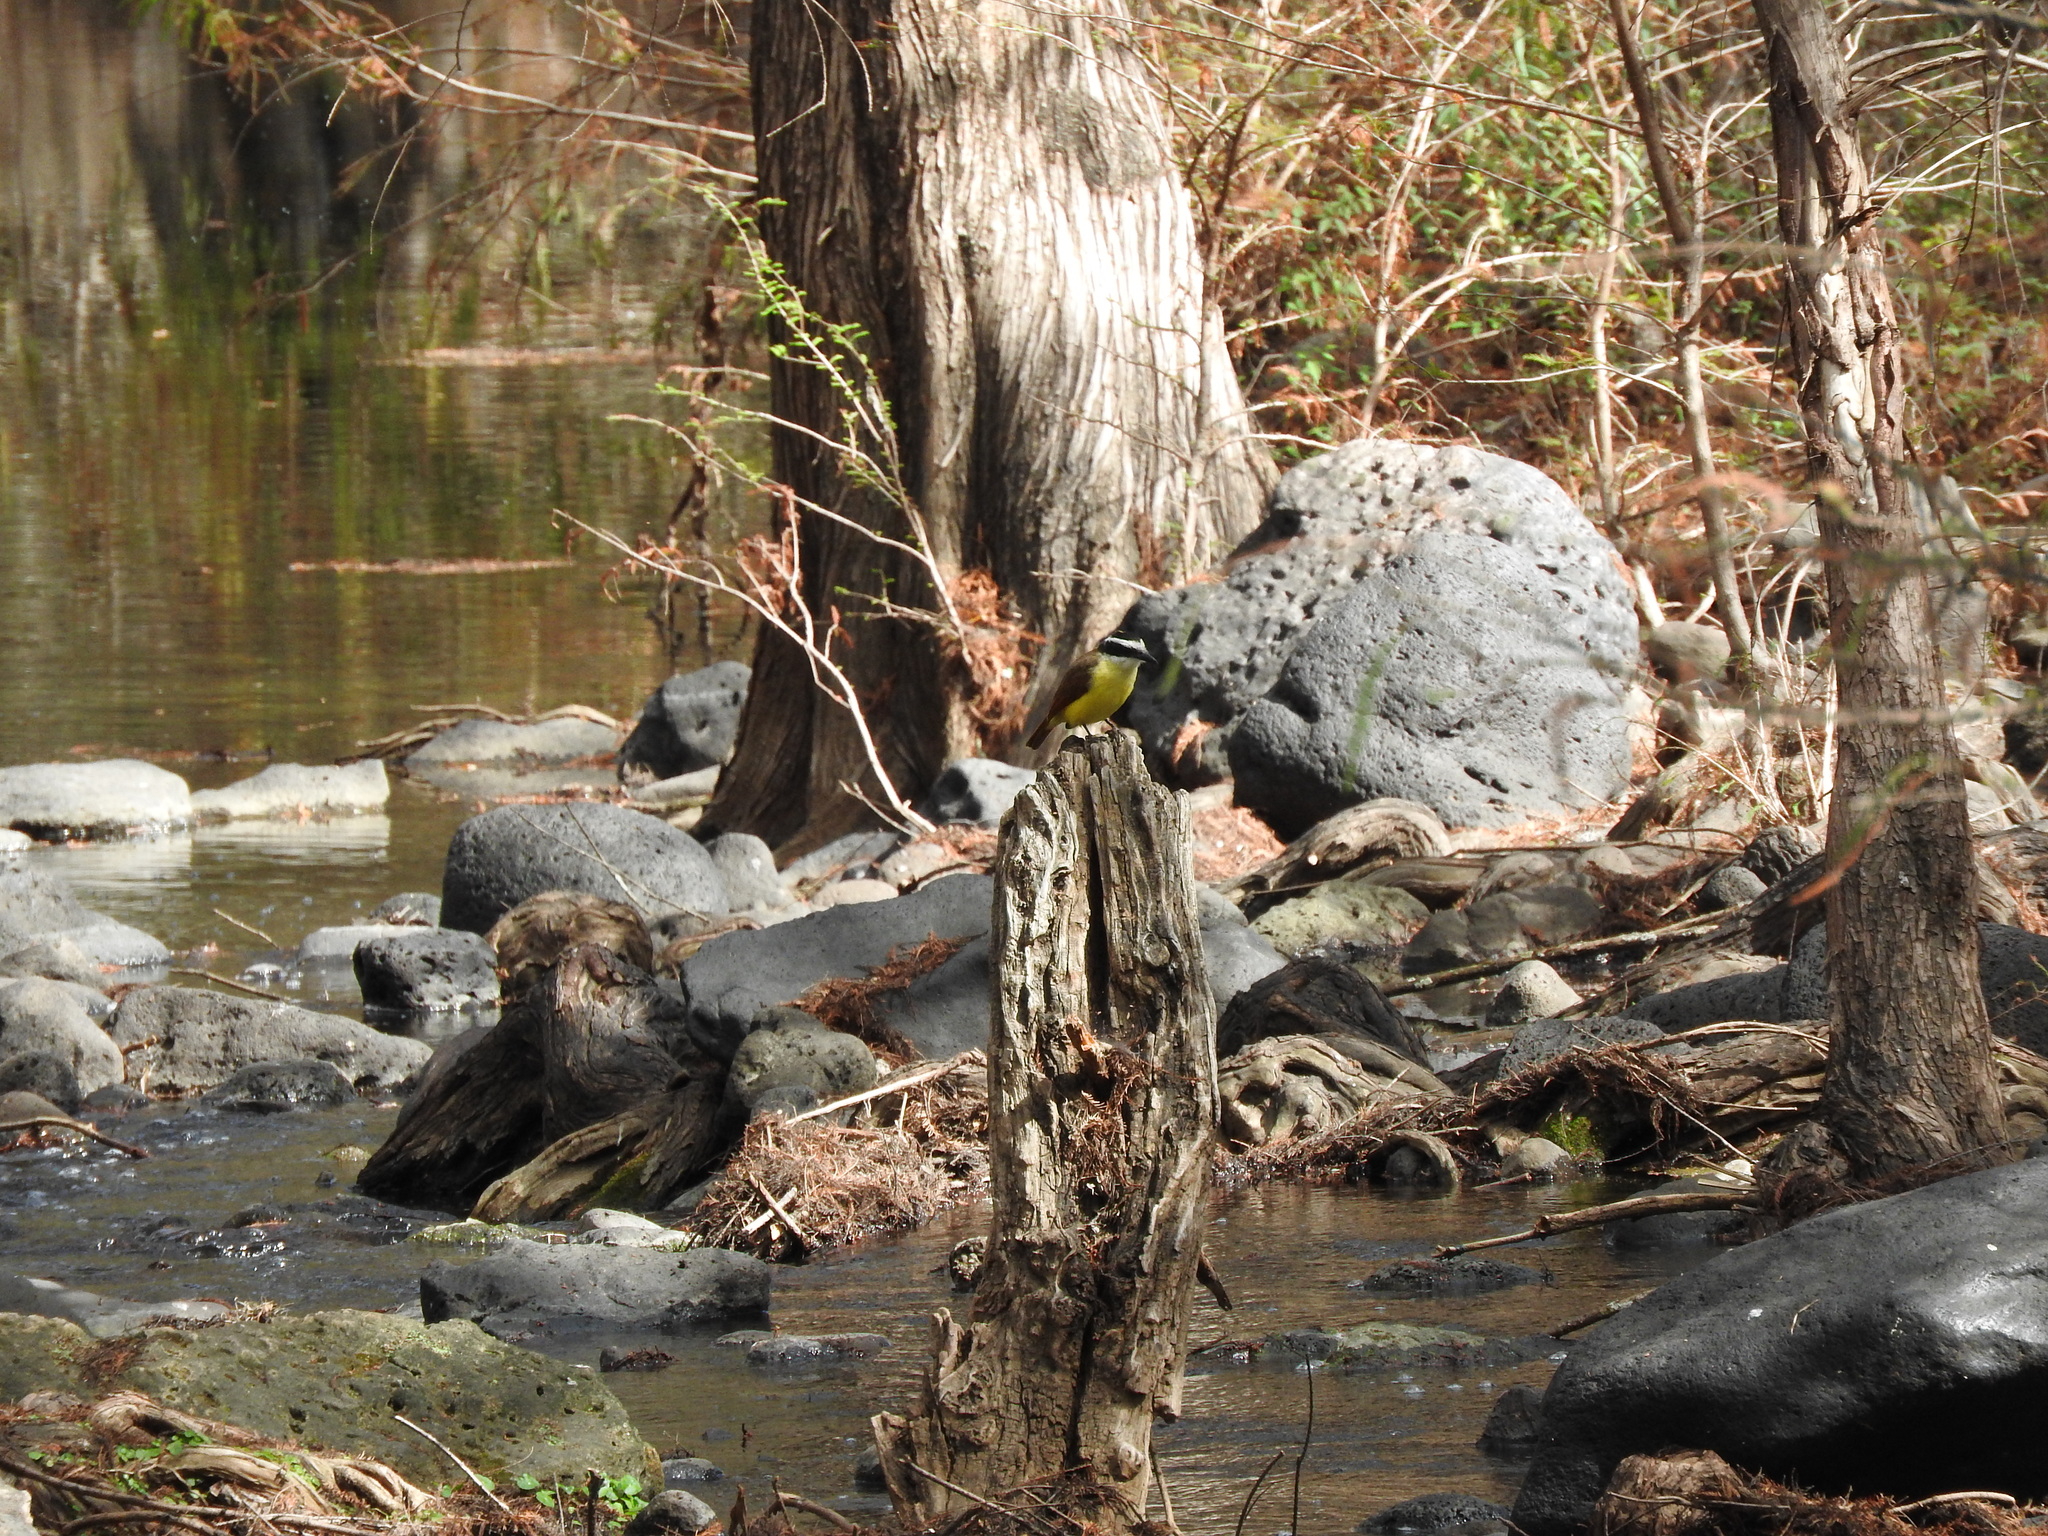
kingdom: Animalia
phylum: Chordata
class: Aves
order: Passeriformes
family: Tyrannidae
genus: Pitangus
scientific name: Pitangus sulphuratus
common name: Great kiskadee
